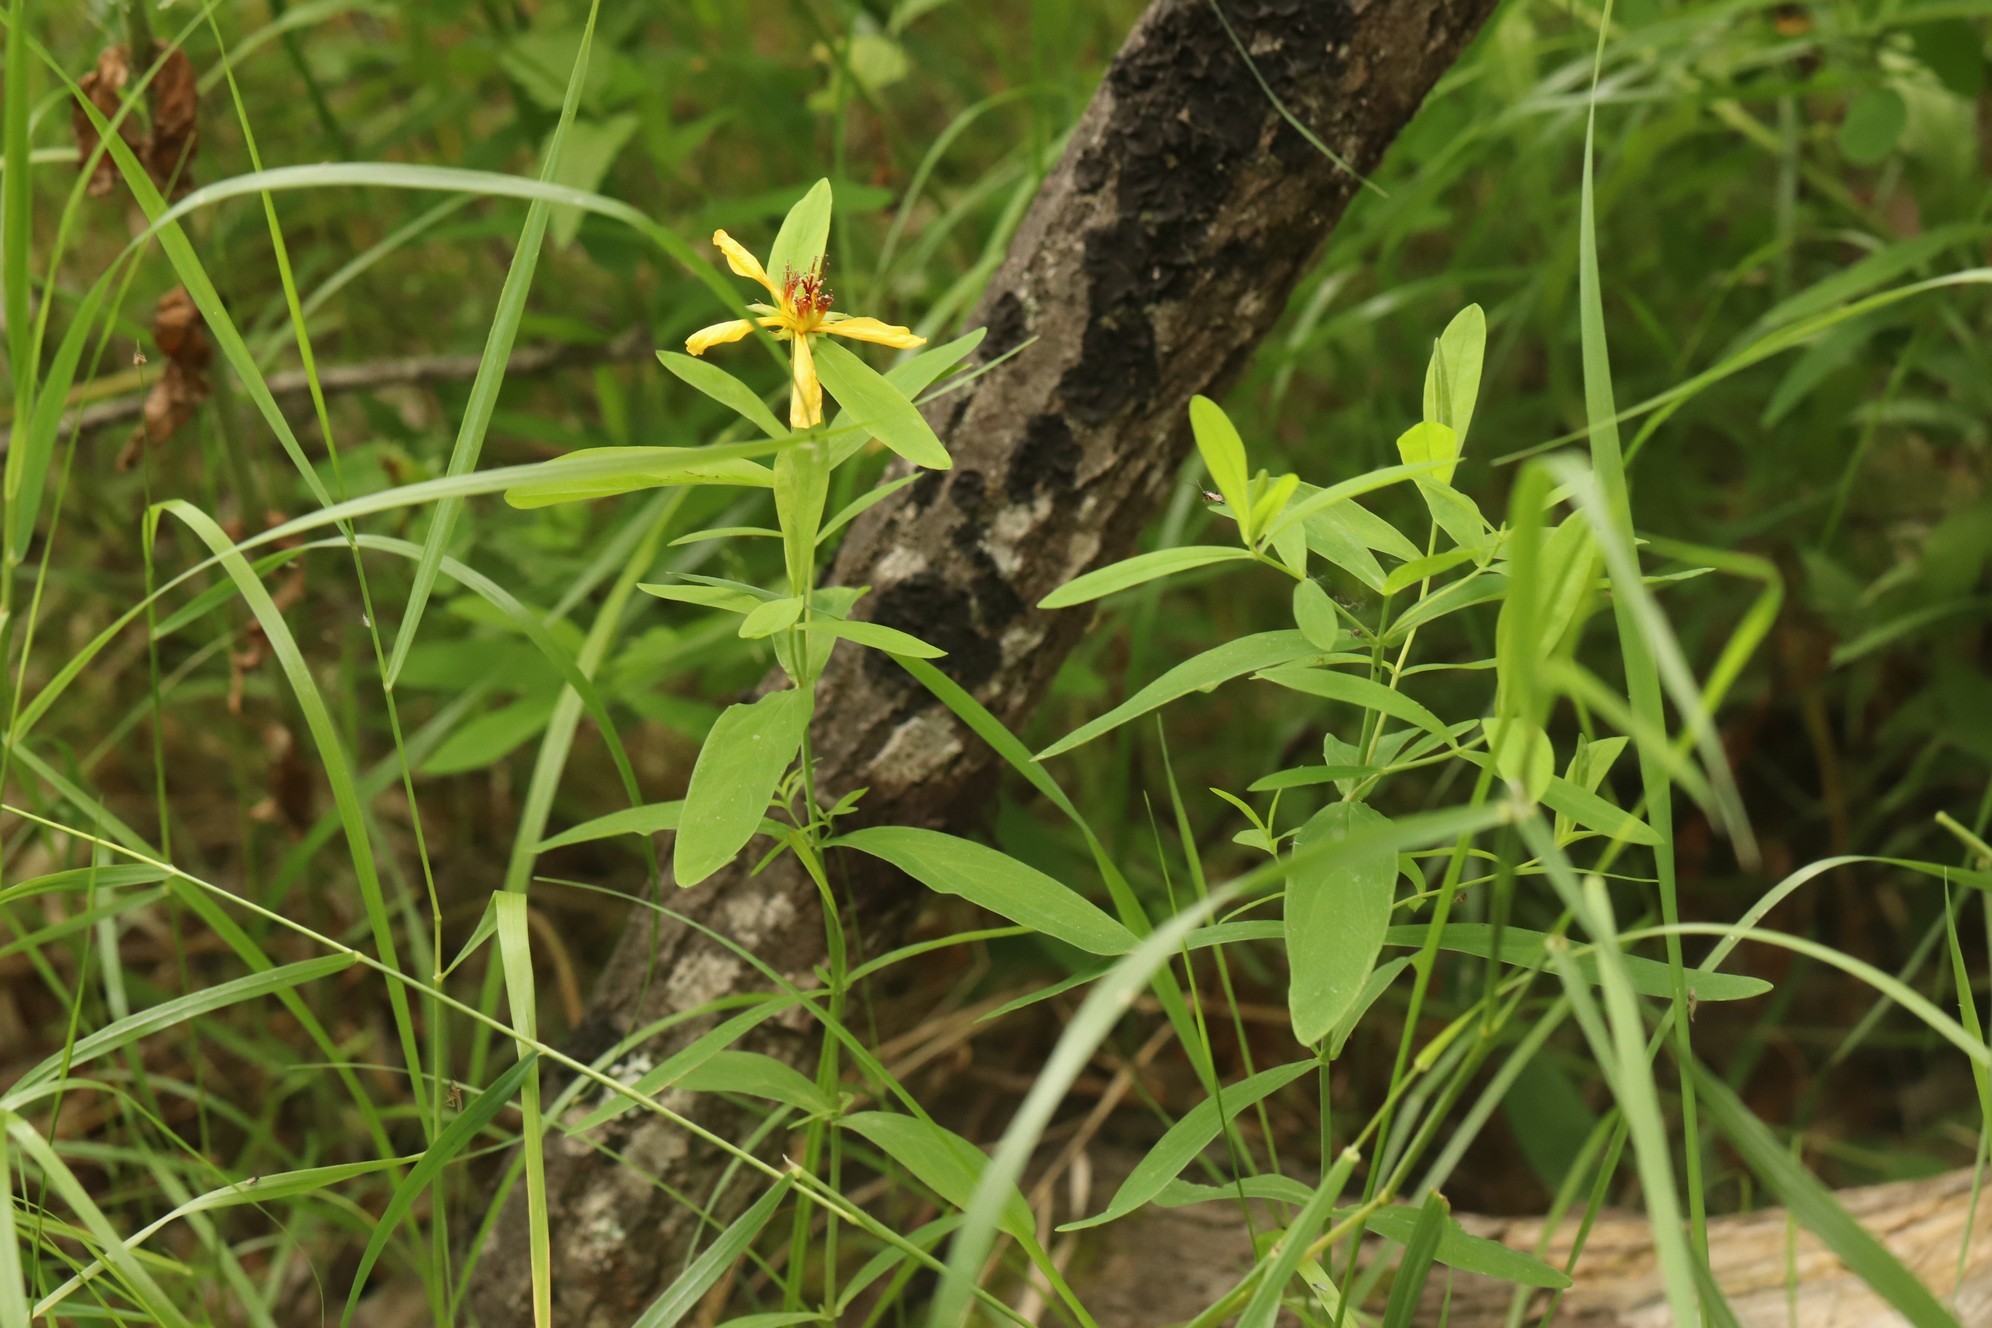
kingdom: Plantae
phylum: Tracheophyta
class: Magnoliopsida
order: Malpighiales
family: Hypericaceae
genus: Hypericum
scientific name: Hypericum ascyron
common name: Giant st. john's-wort
